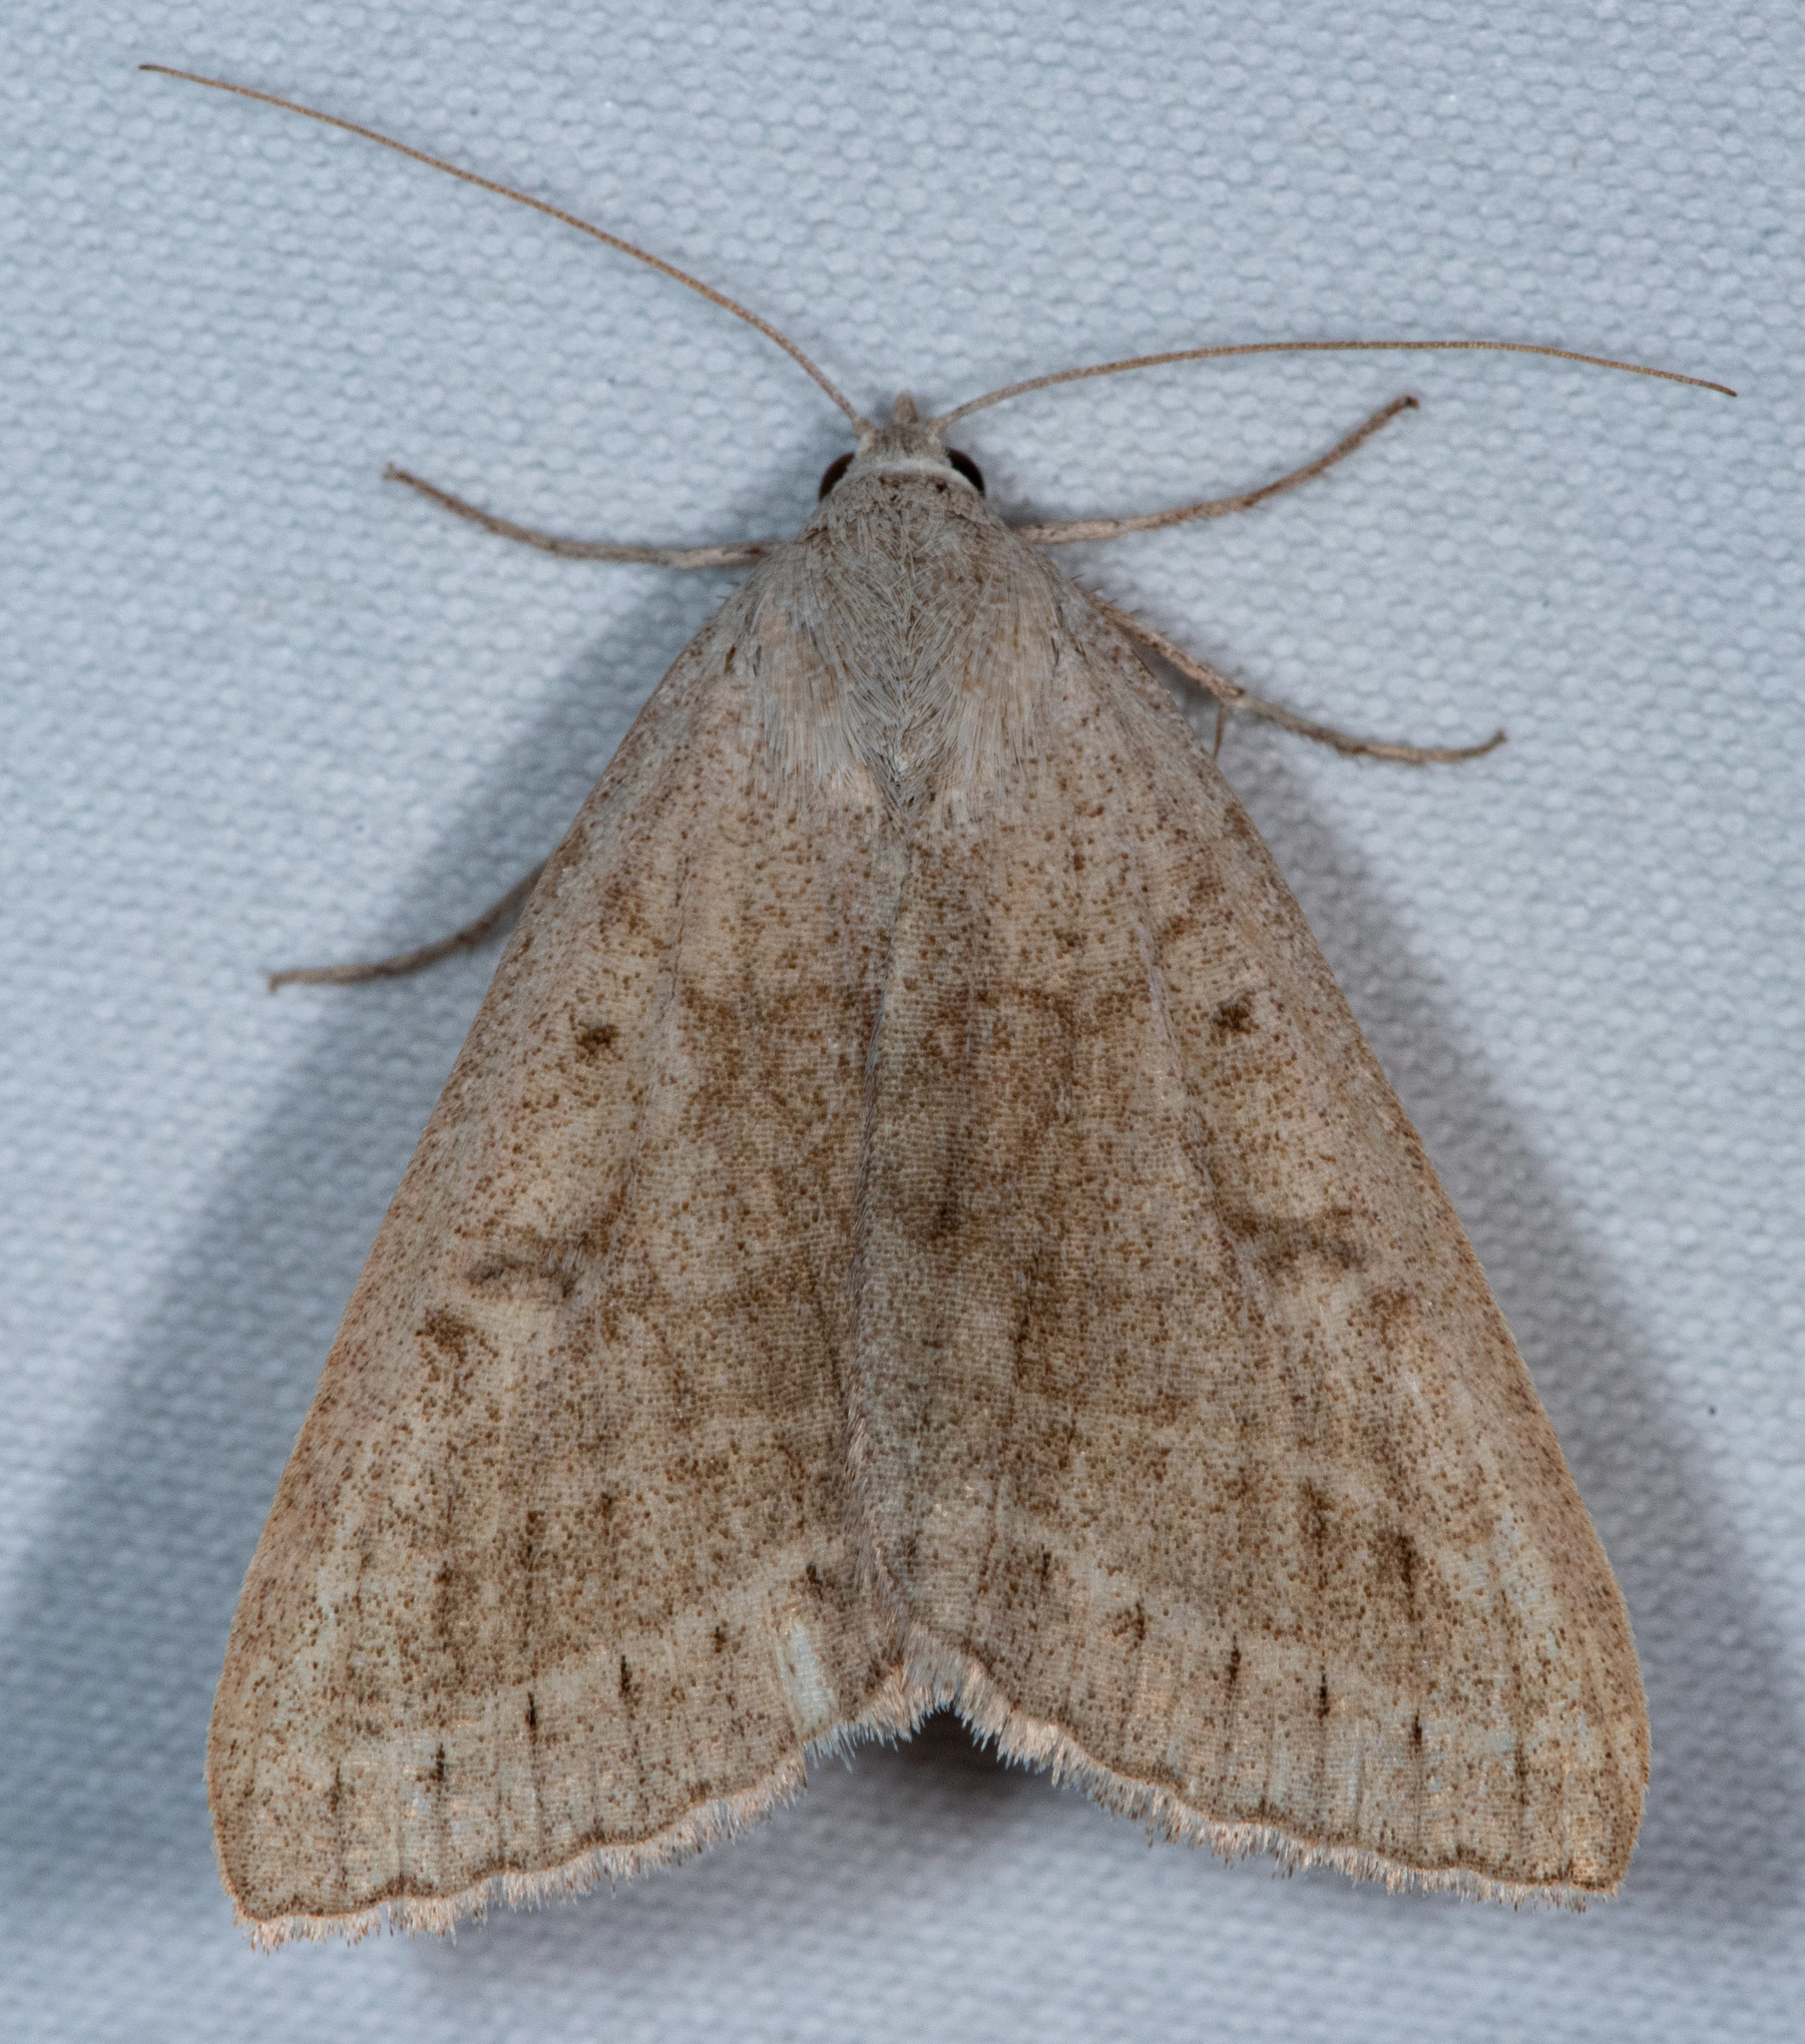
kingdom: Animalia
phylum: Arthropoda
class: Insecta
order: Lepidoptera
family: Erebidae
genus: Caenurgia
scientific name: Caenurgia togataria
